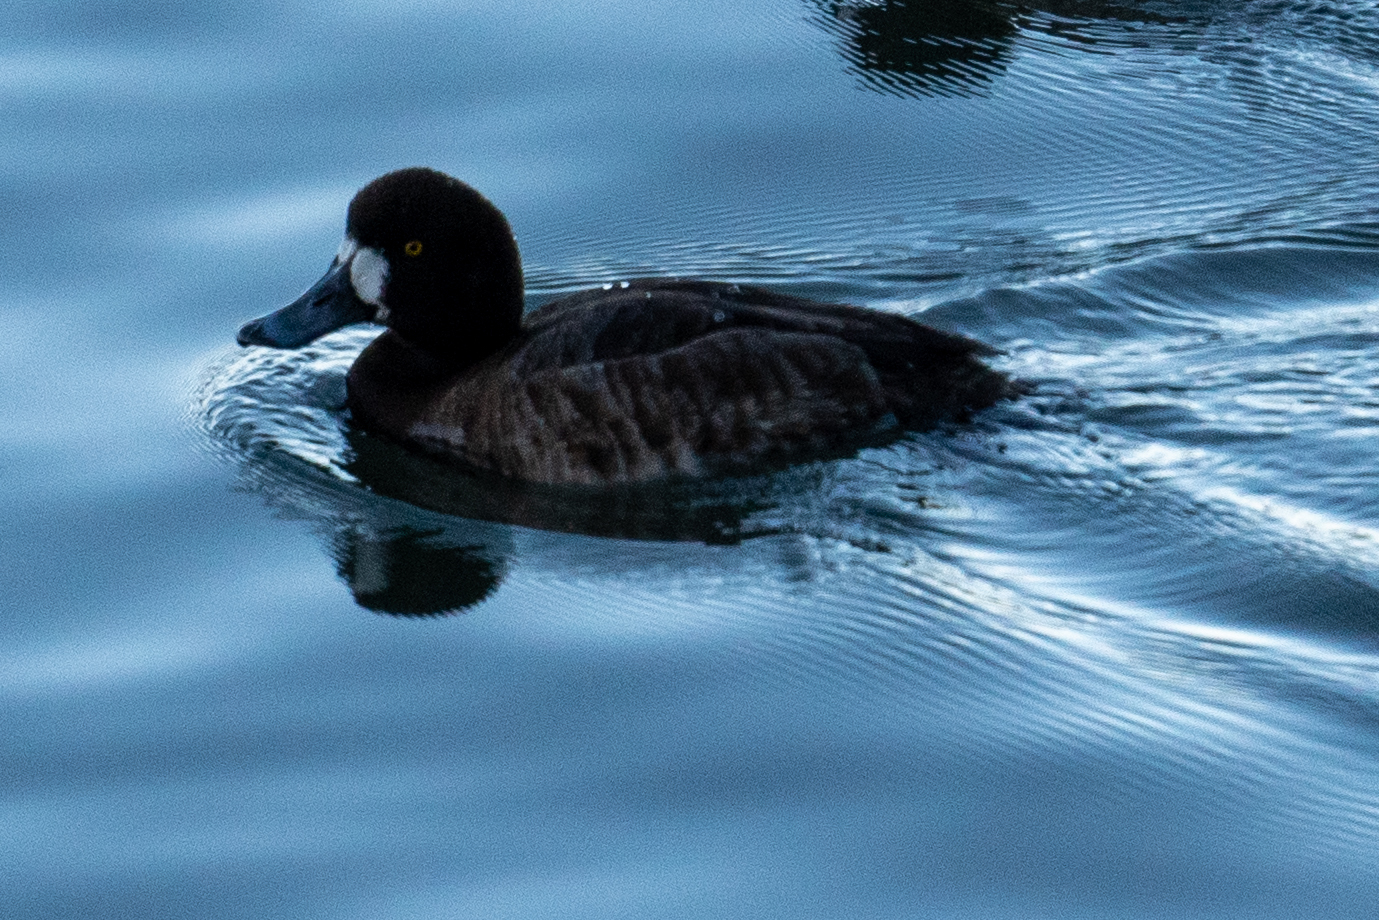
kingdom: Animalia
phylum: Chordata
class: Aves
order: Anseriformes
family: Anatidae
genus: Aythya
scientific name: Aythya marila
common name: Greater scaup
